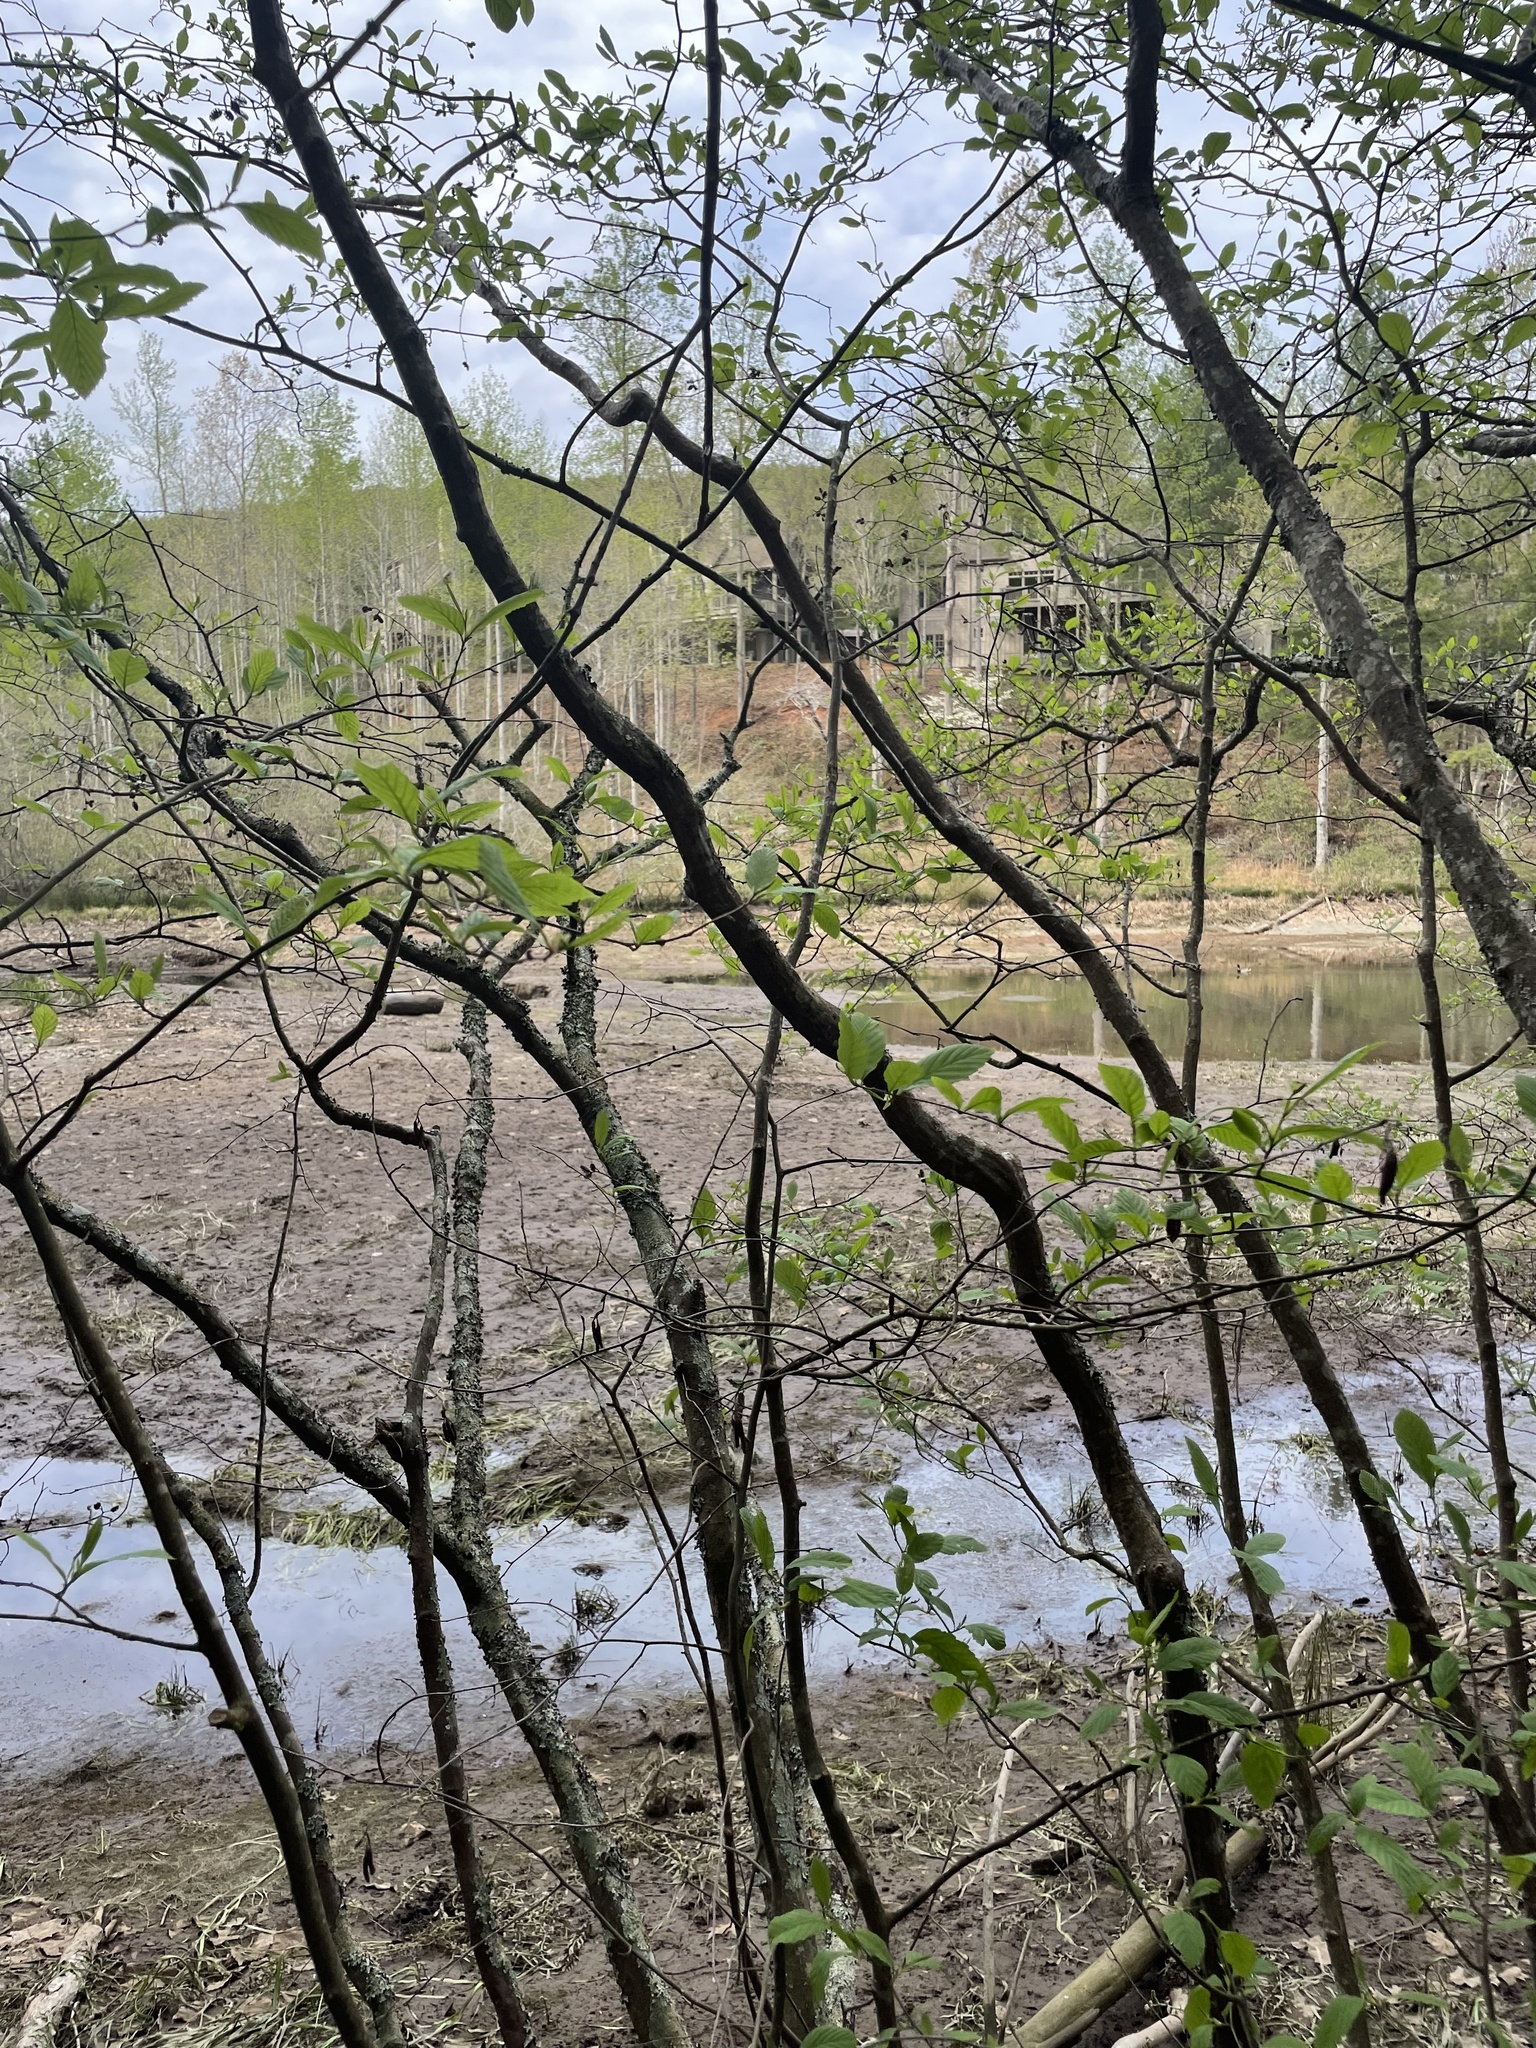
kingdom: Plantae
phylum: Tracheophyta
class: Magnoliopsida
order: Fagales
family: Betulaceae
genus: Alnus
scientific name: Alnus serrulata
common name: Hazel alder
